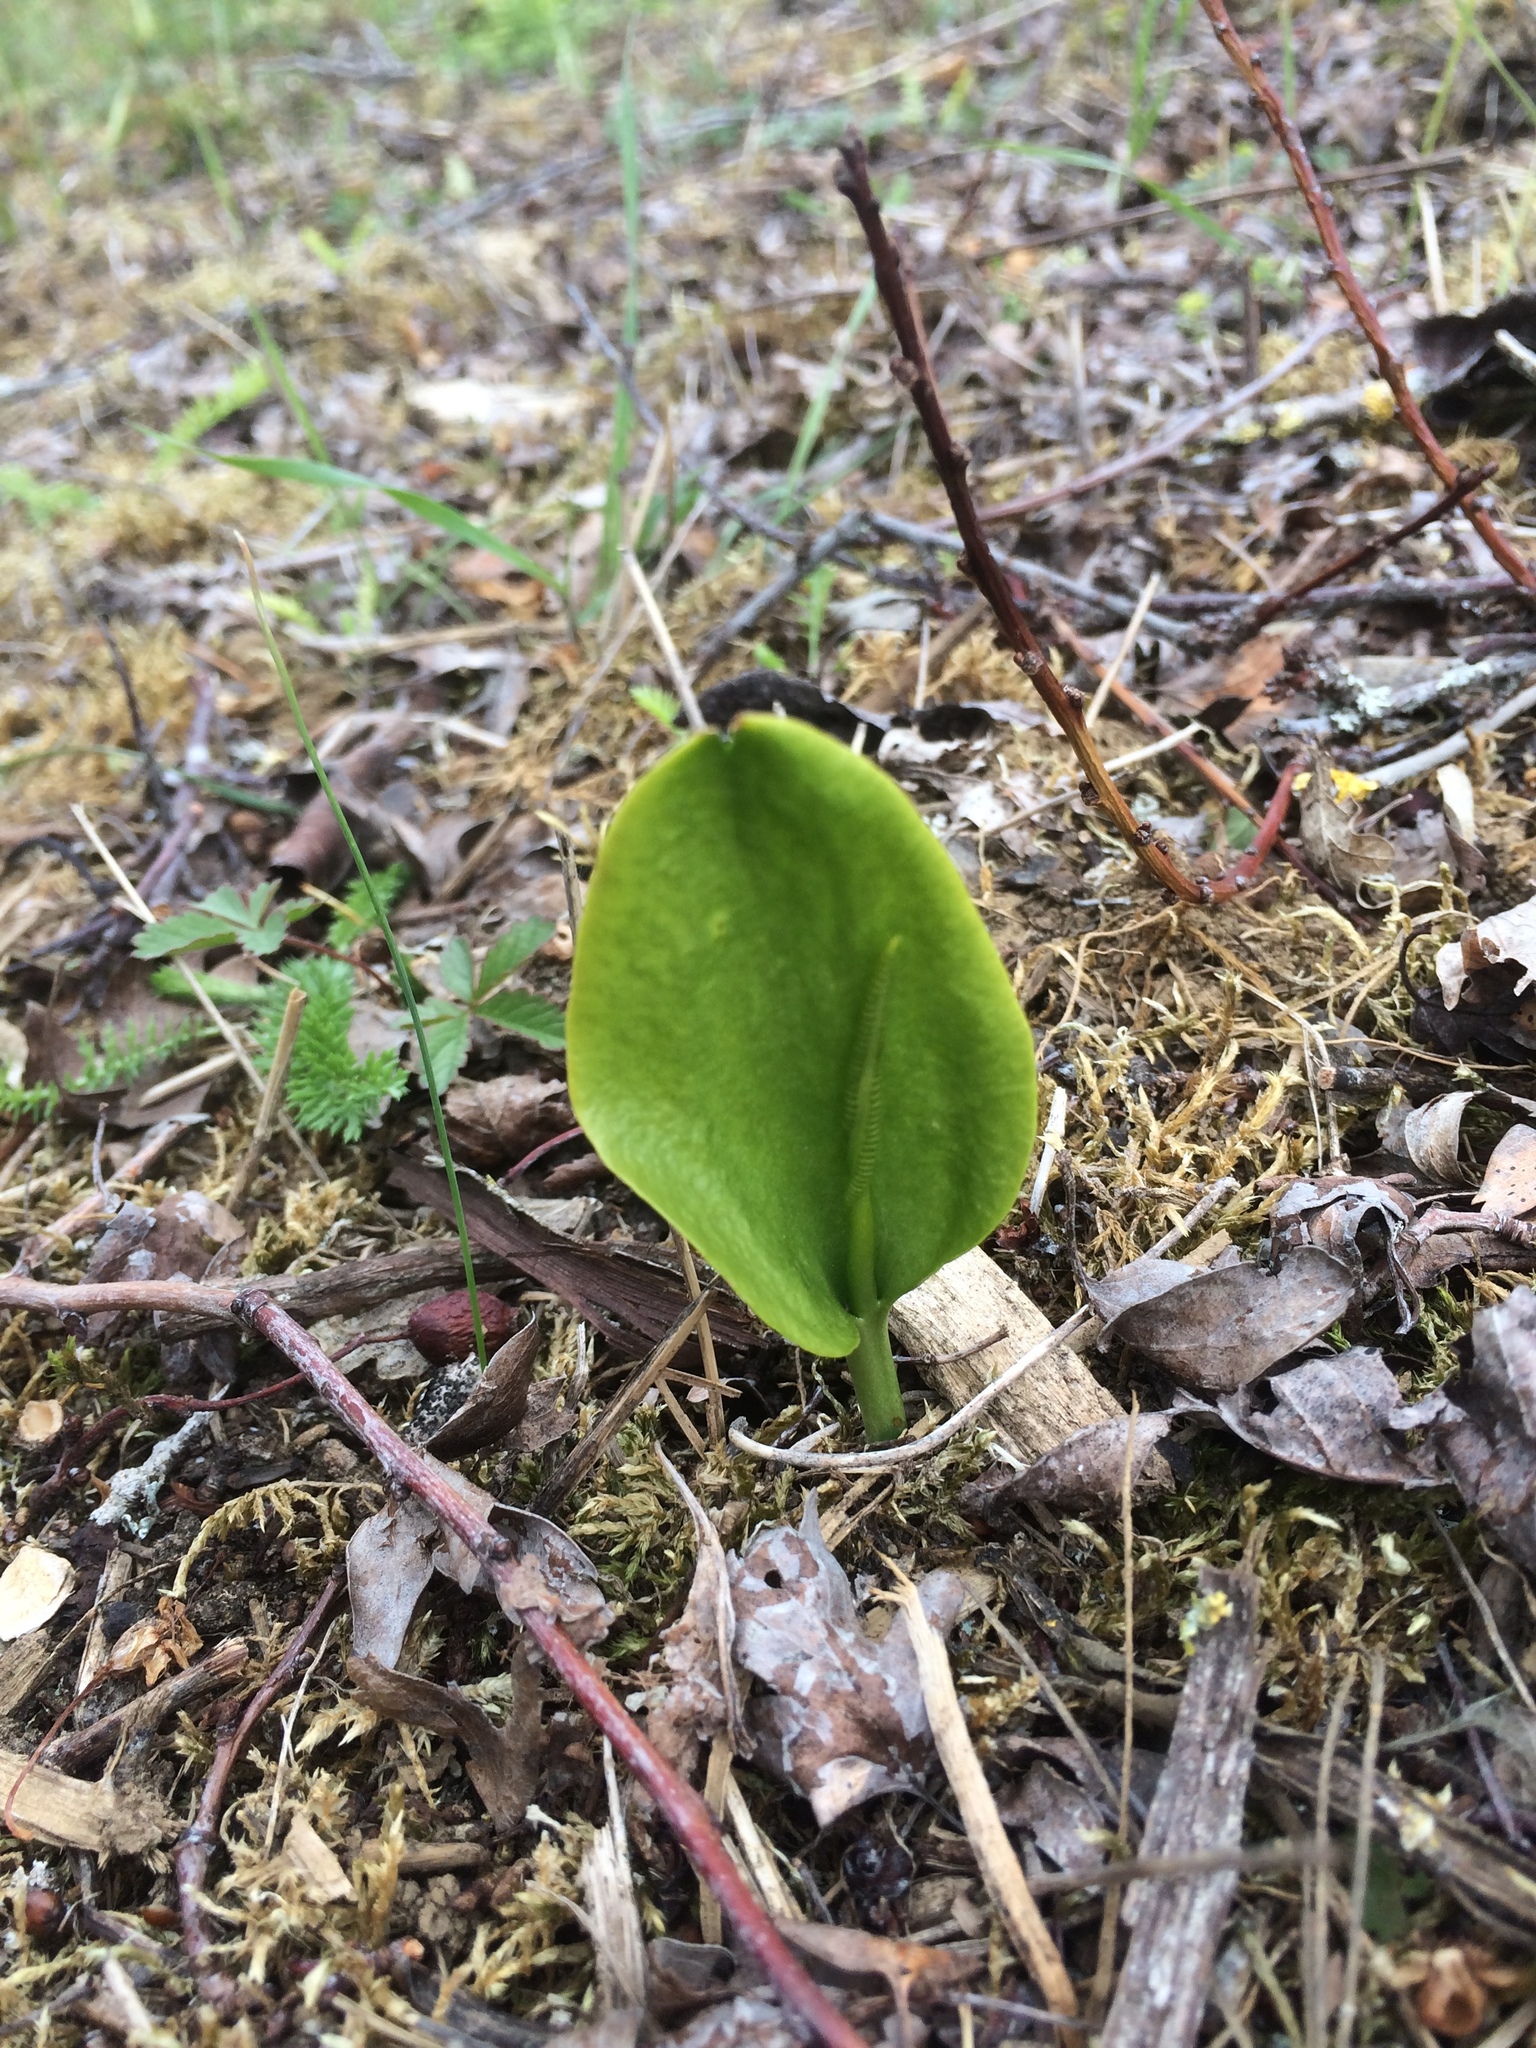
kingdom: Plantae
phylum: Tracheophyta
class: Polypodiopsida
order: Ophioglossales
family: Ophioglossaceae
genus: Ophioglossum
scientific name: Ophioglossum vulgatum
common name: Adder's-tongue
